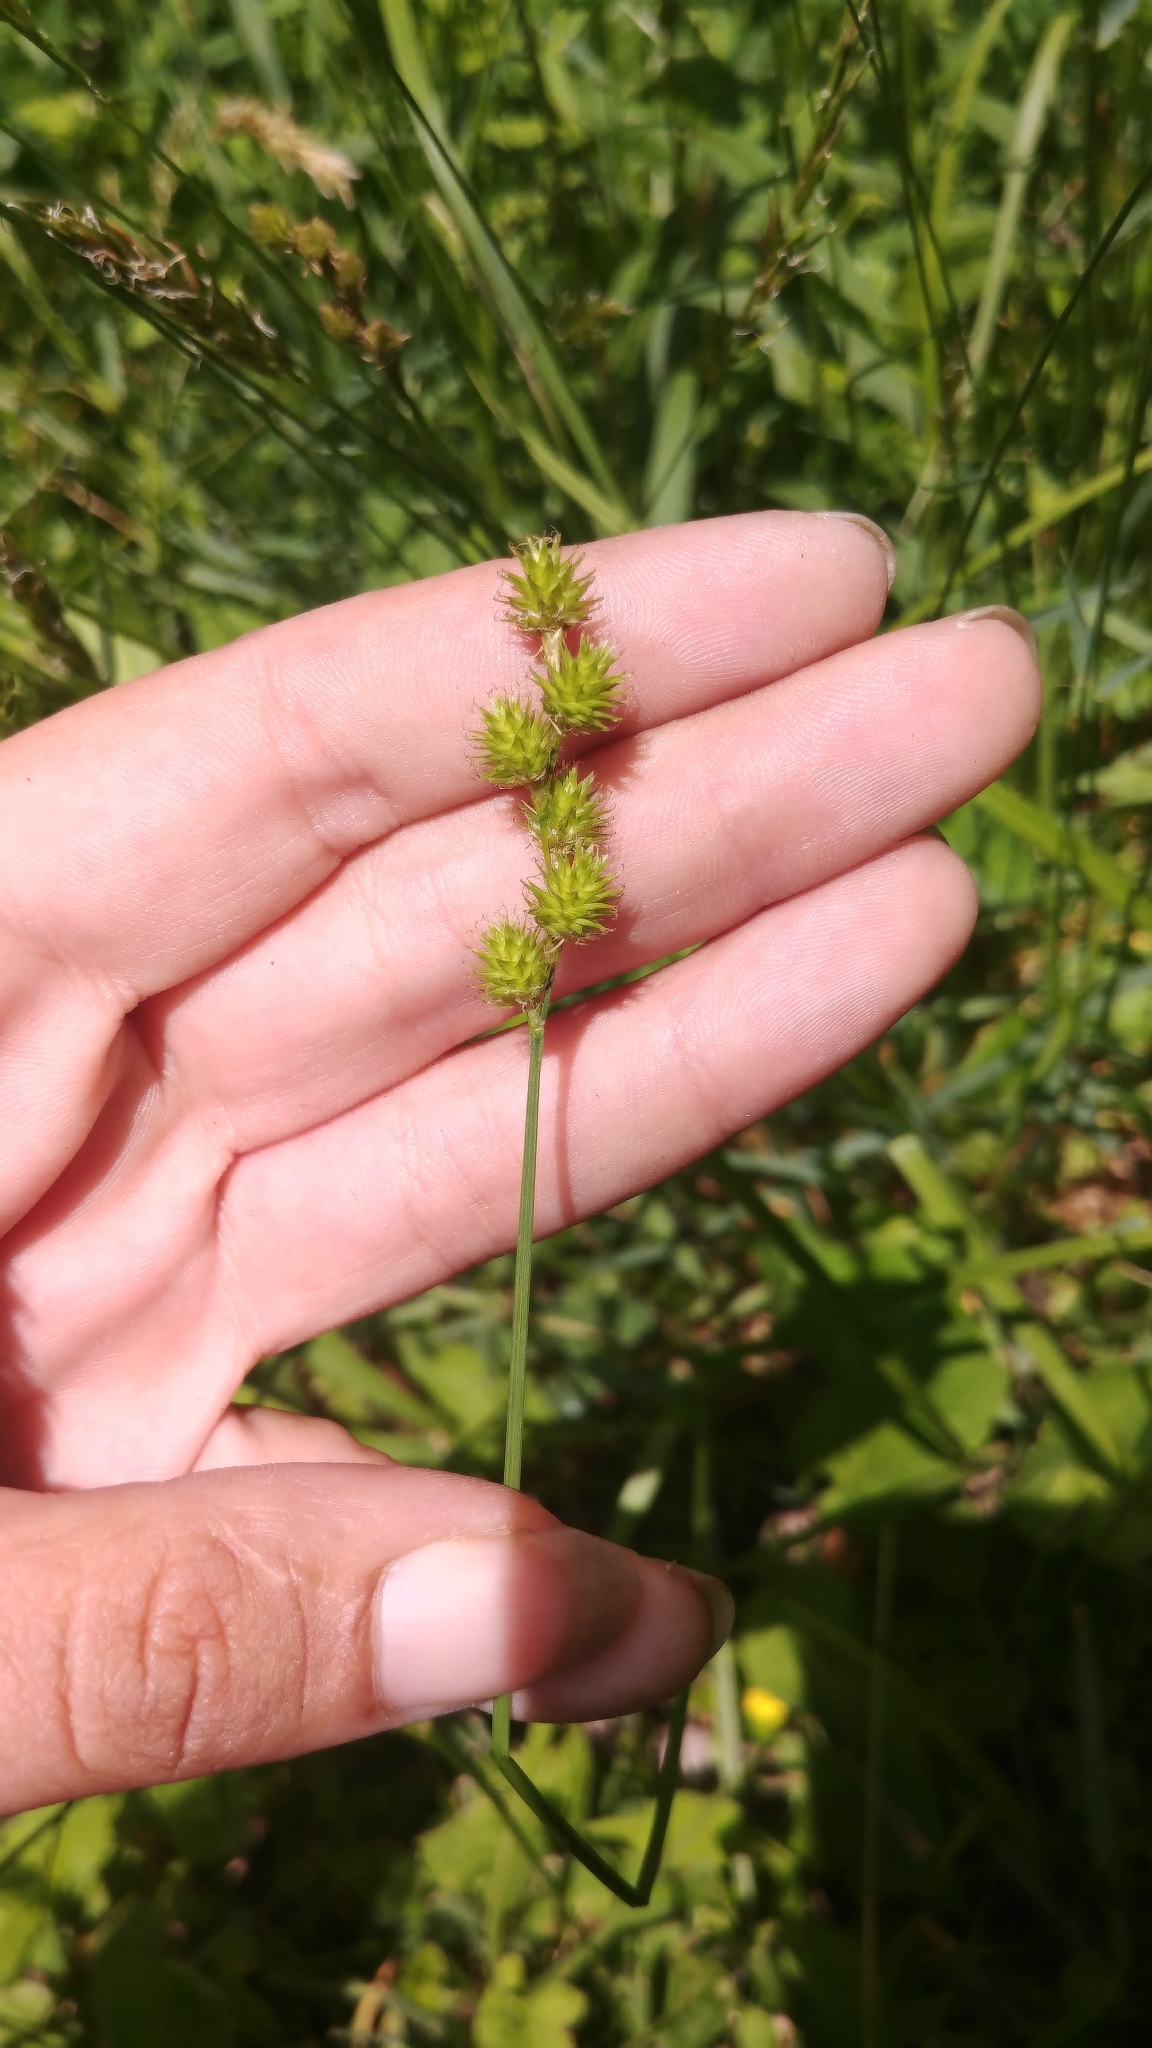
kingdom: Plantae
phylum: Tracheophyta
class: Liliopsida
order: Poales
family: Cyperaceae
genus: Carex
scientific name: Carex normalis
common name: Greater straw sedge
